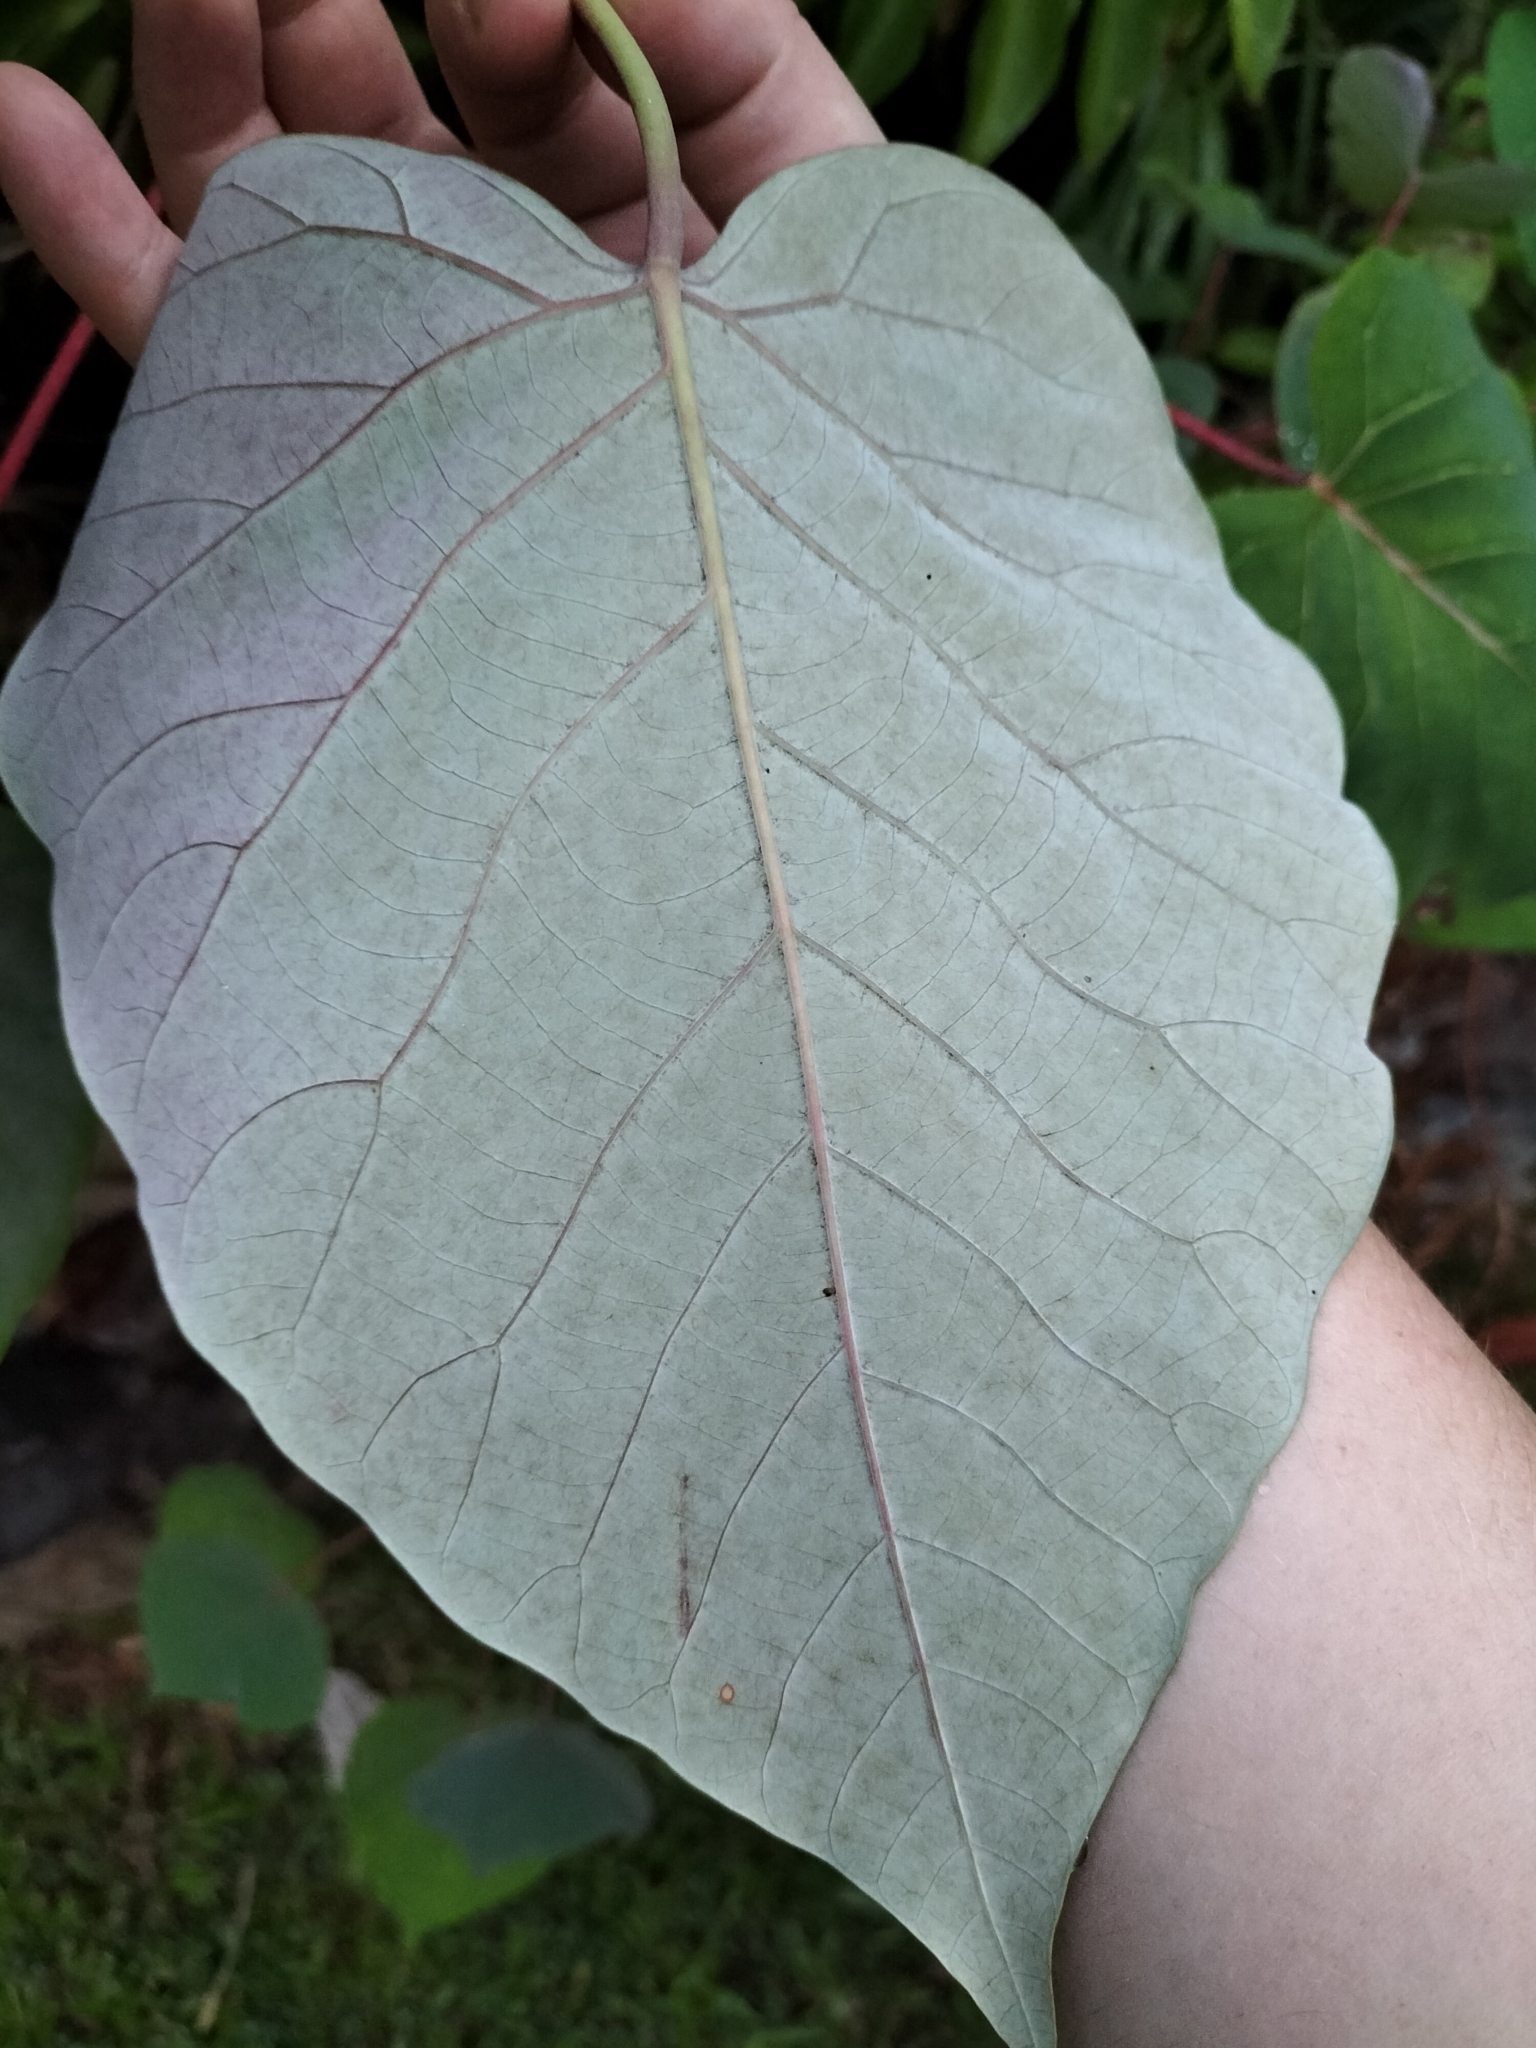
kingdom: Plantae
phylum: Tracheophyta
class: Magnoliopsida
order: Malpighiales
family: Euphorbiaceae
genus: Homalanthus
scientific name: Homalanthus novoguineensis
